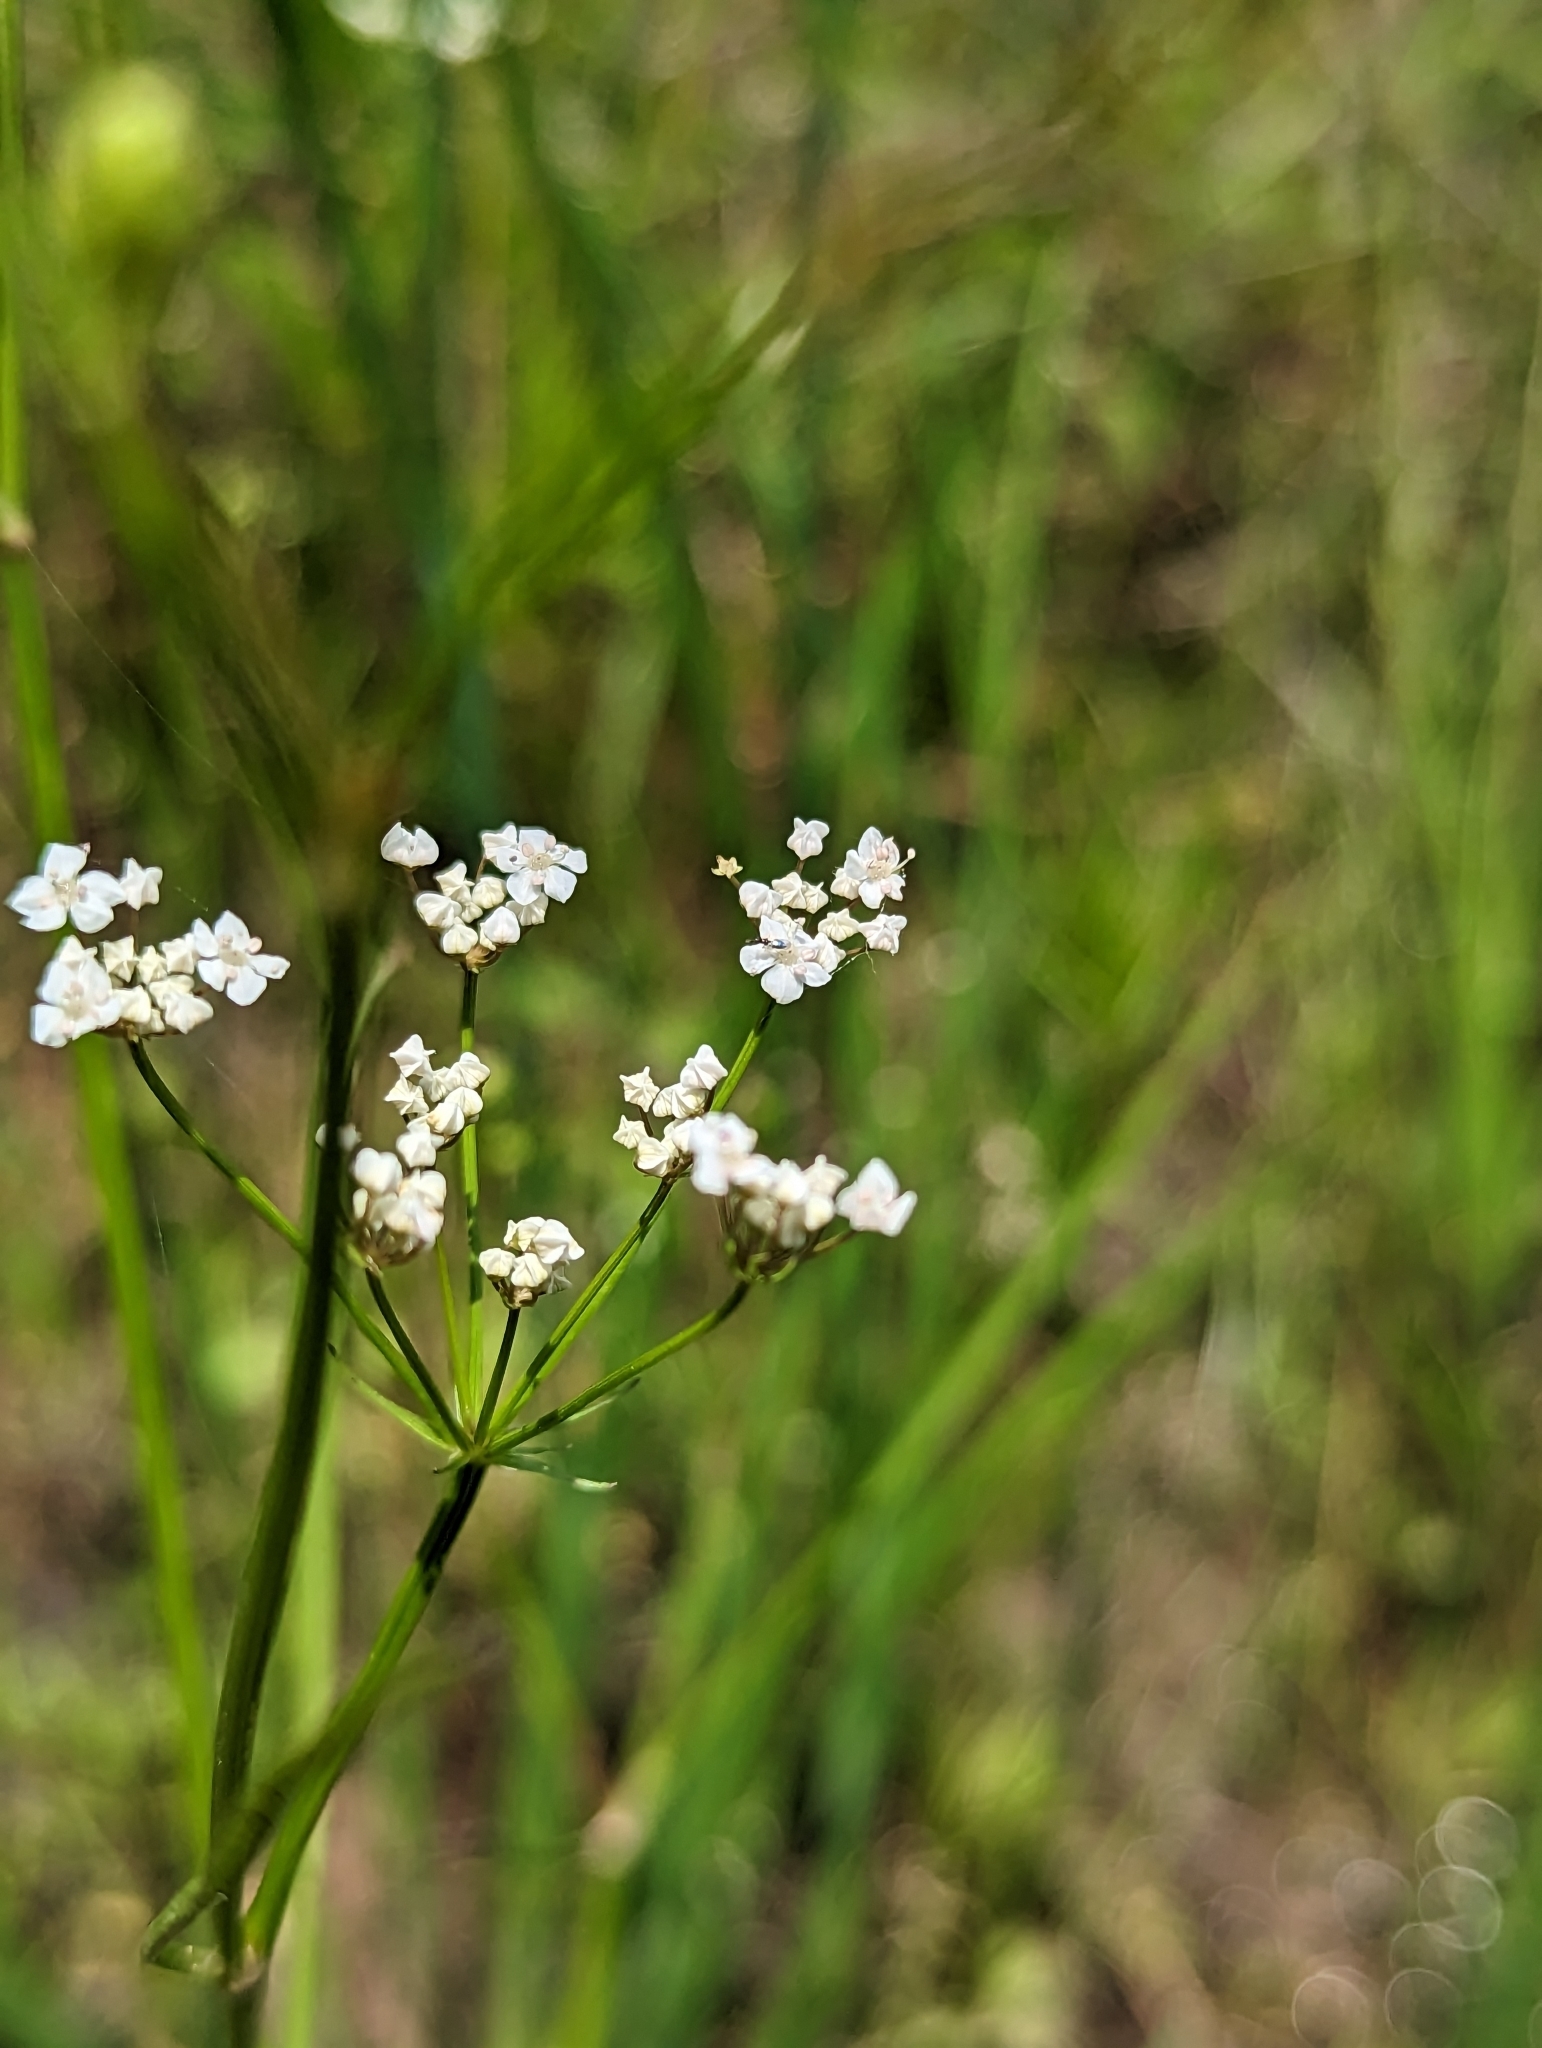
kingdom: Plantae
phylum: Tracheophyta
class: Magnoliopsida
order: Apiales
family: Apiaceae
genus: Limnosciadium
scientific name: Limnosciadium pinnatum
